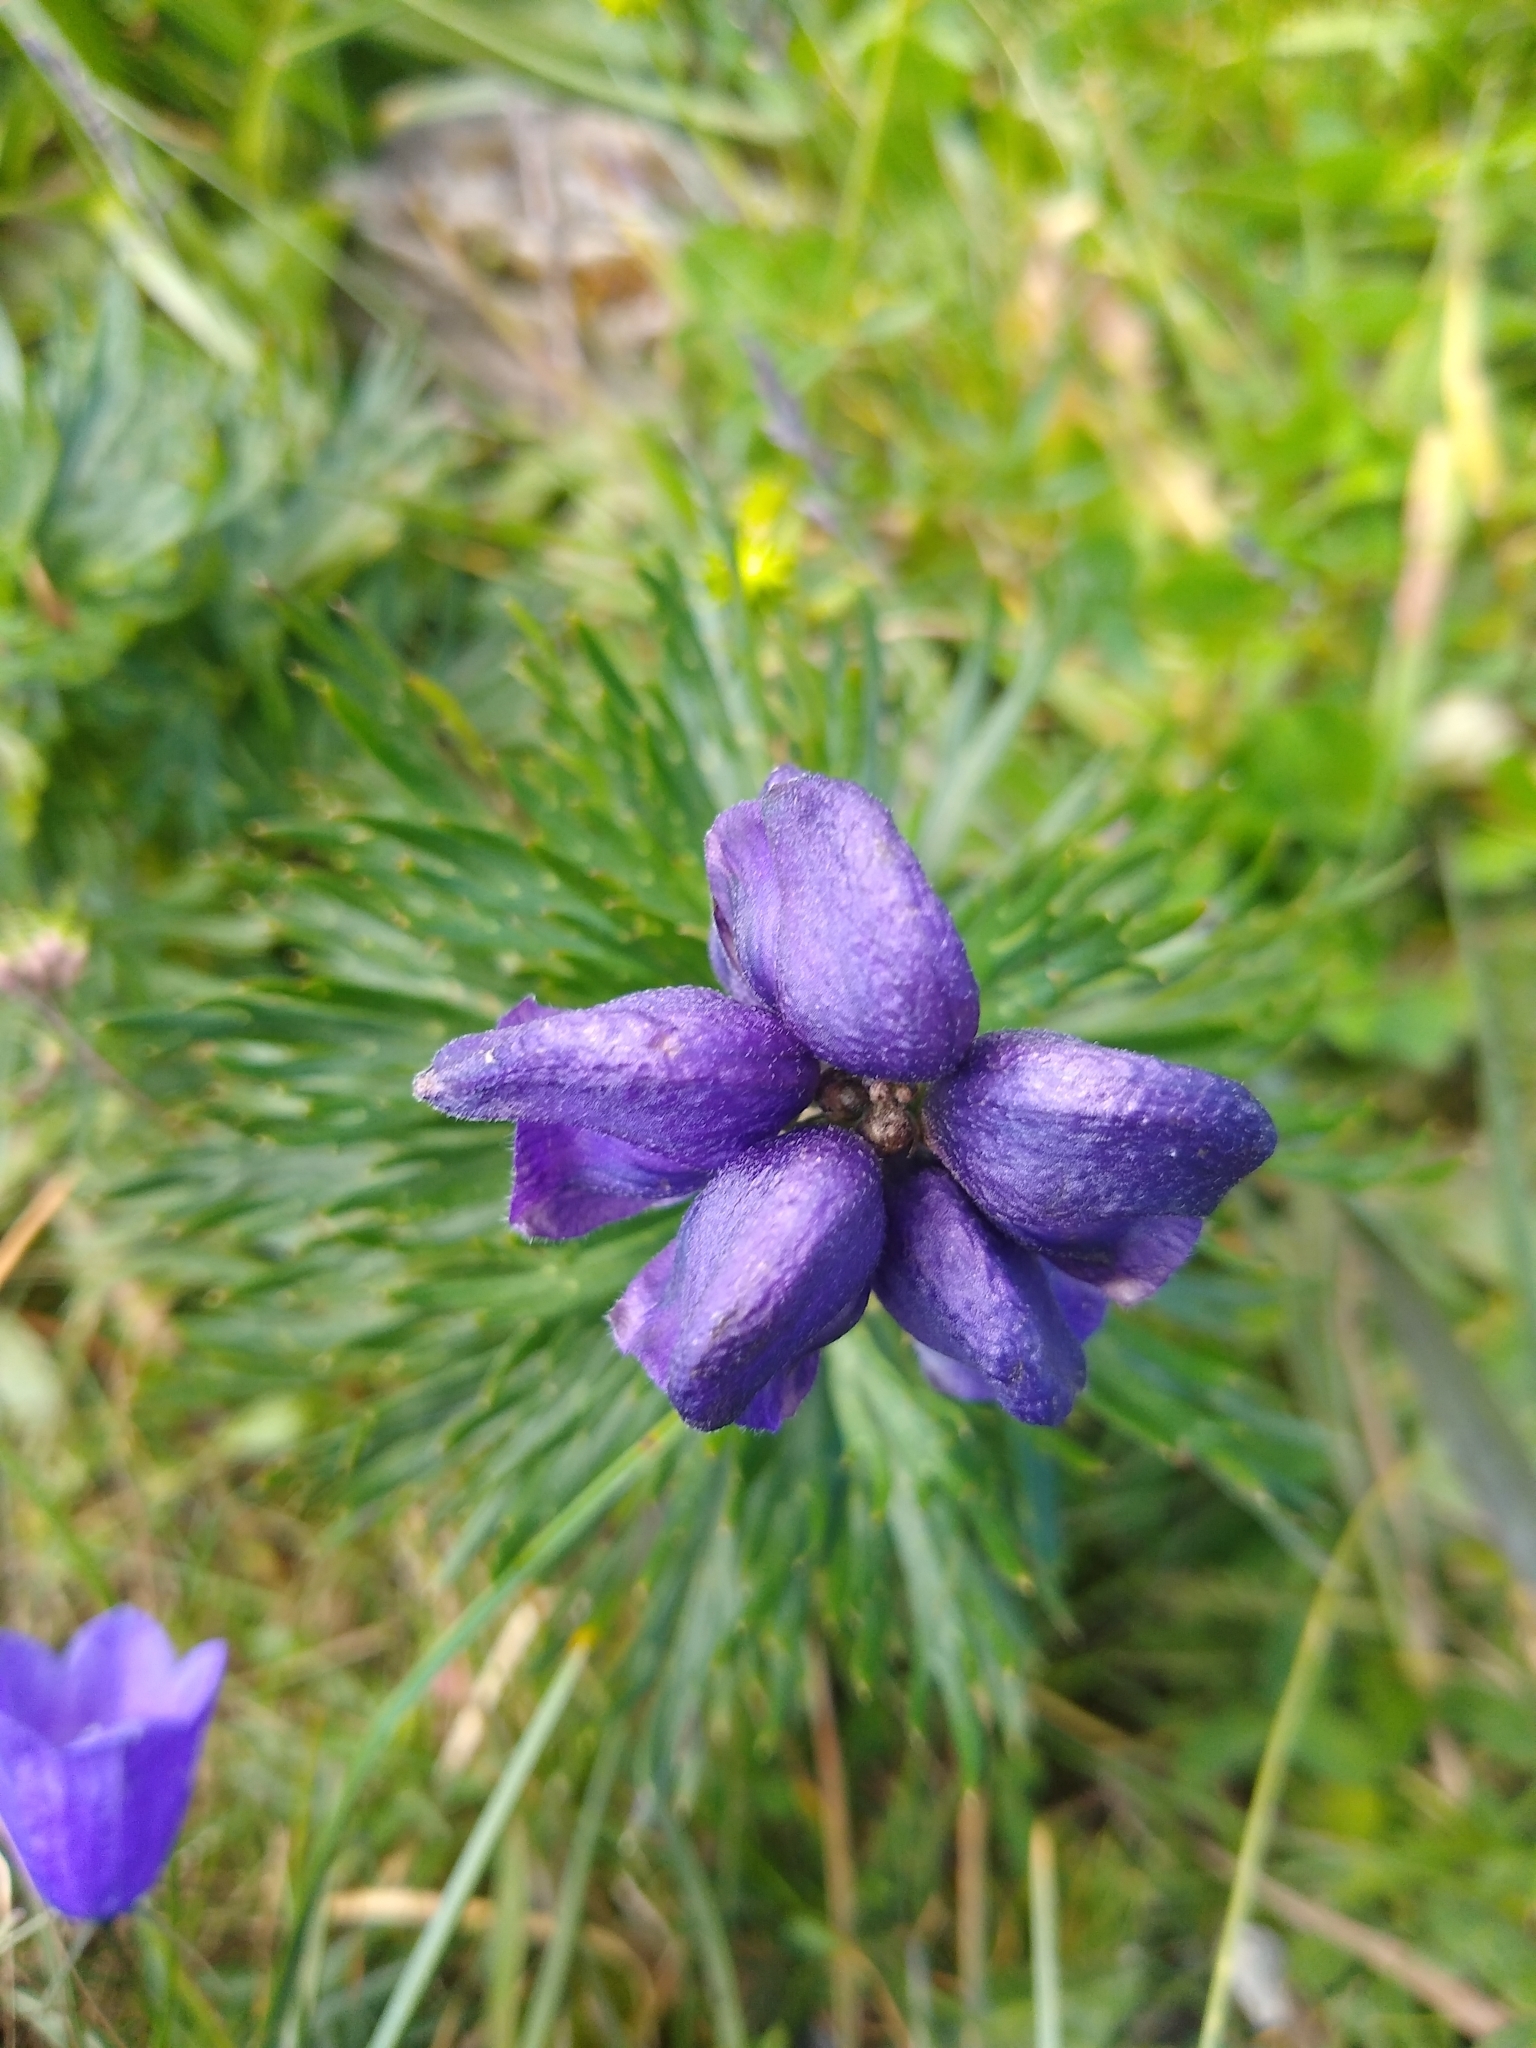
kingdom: Plantae
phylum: Tracheophyta
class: Magnoliopsida
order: Ranunculales
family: Ranunculaceae
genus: Aconitum
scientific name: Aconitum napellus
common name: Garden monkshood
